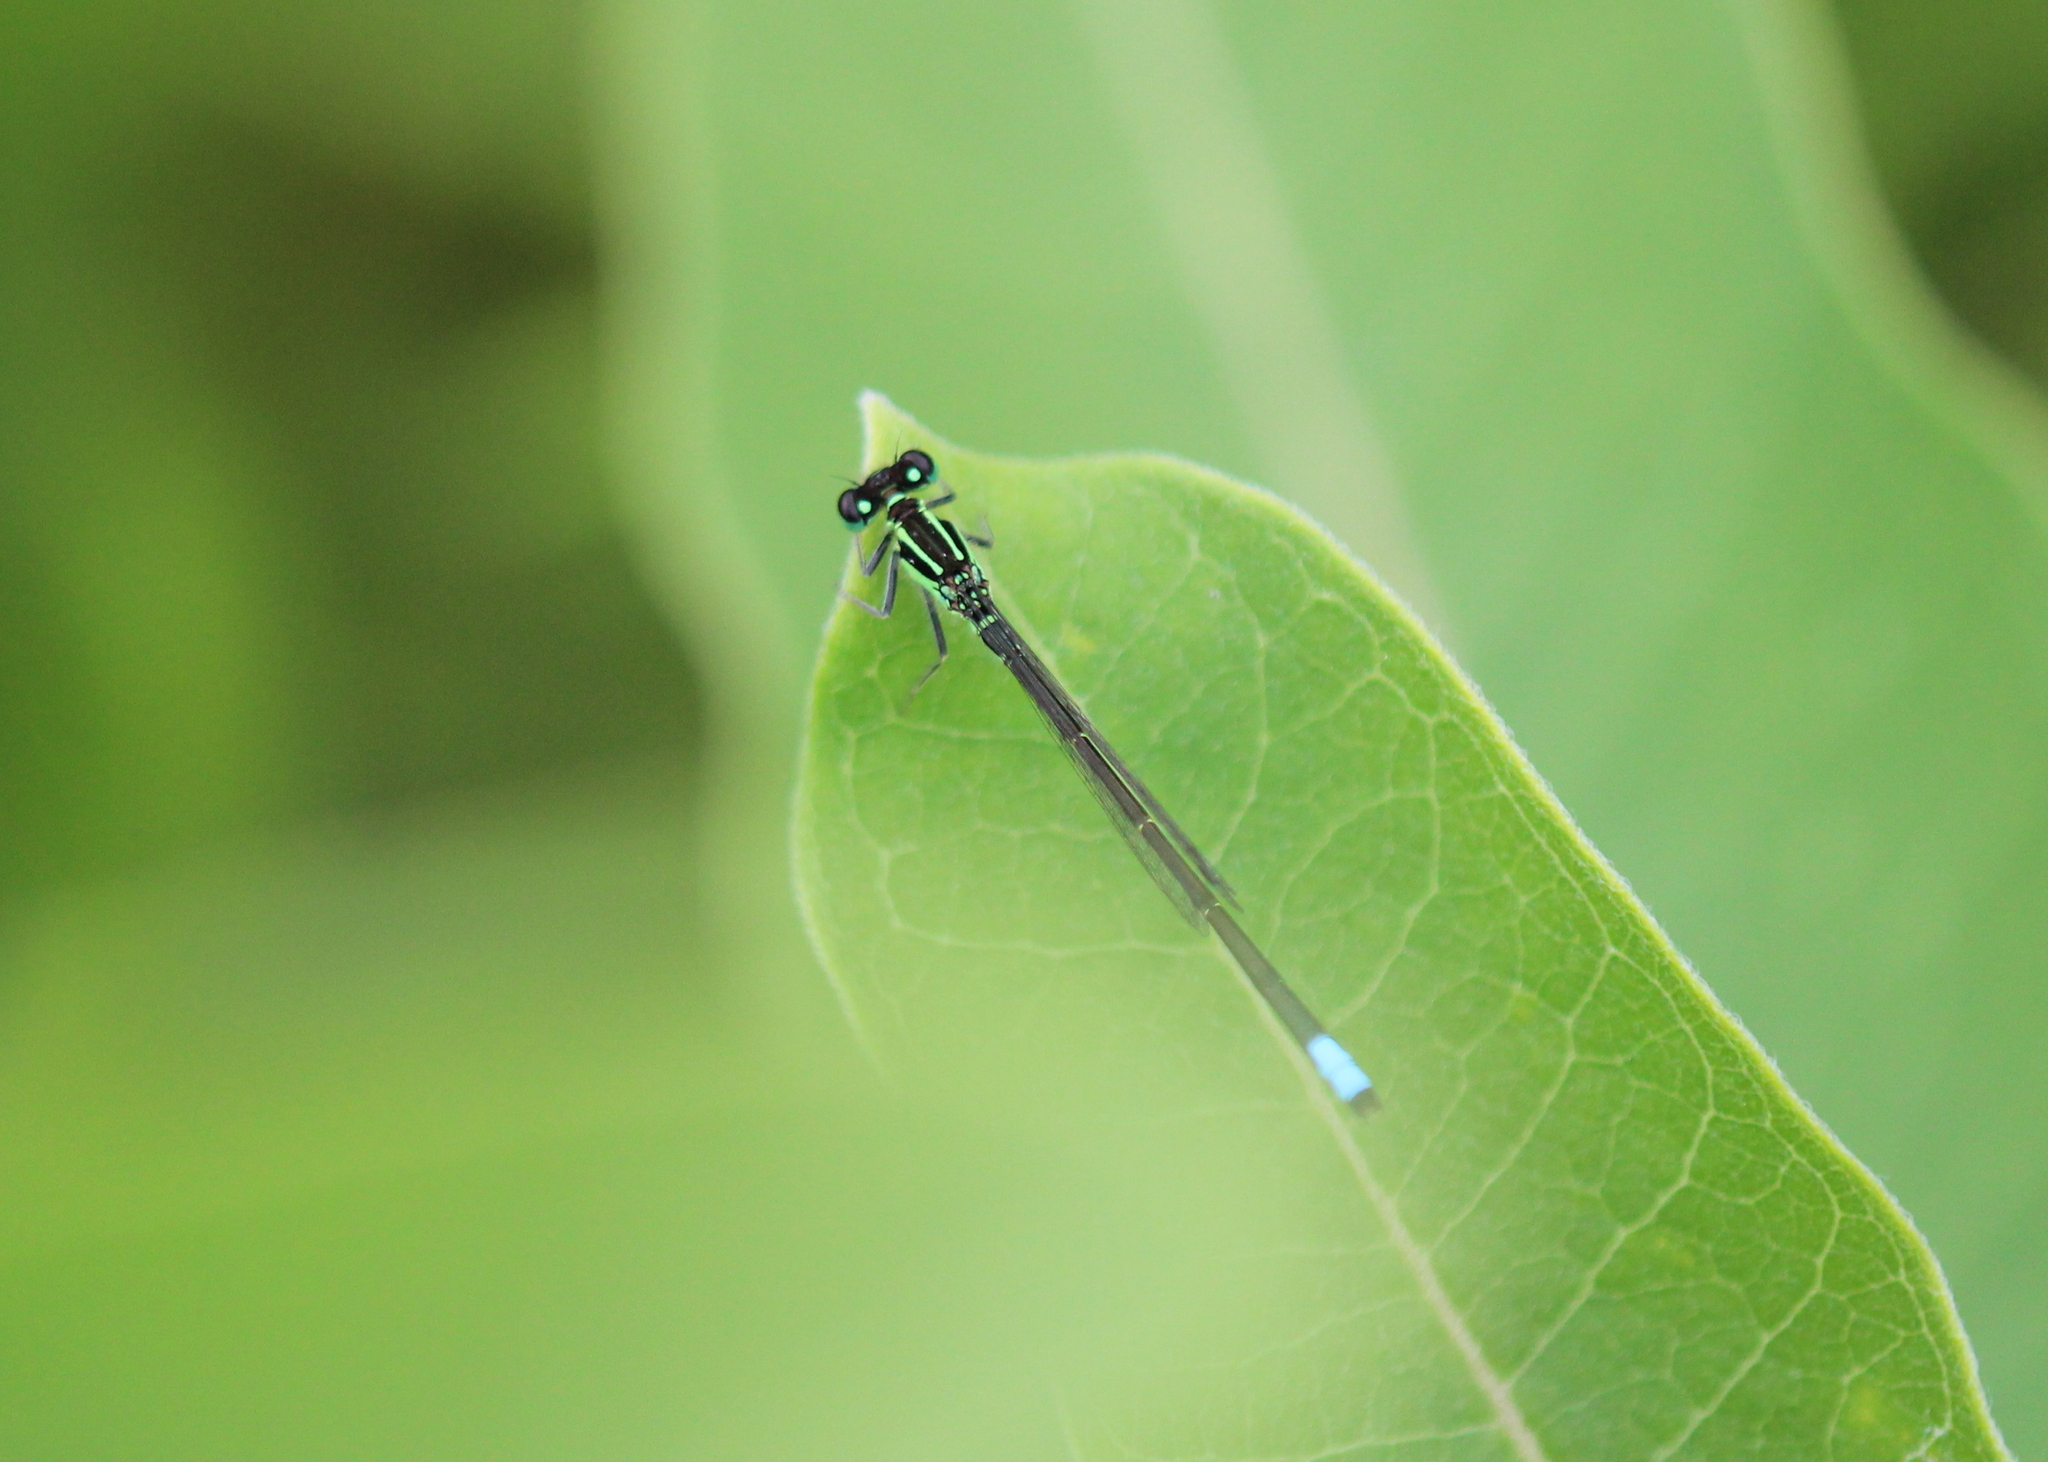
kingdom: Animalia
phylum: Arthropoda
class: Insecta
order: Odonata
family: Coenagrionidae
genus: Ischnura
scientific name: Ischnura verticalis
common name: Eastern forktail
